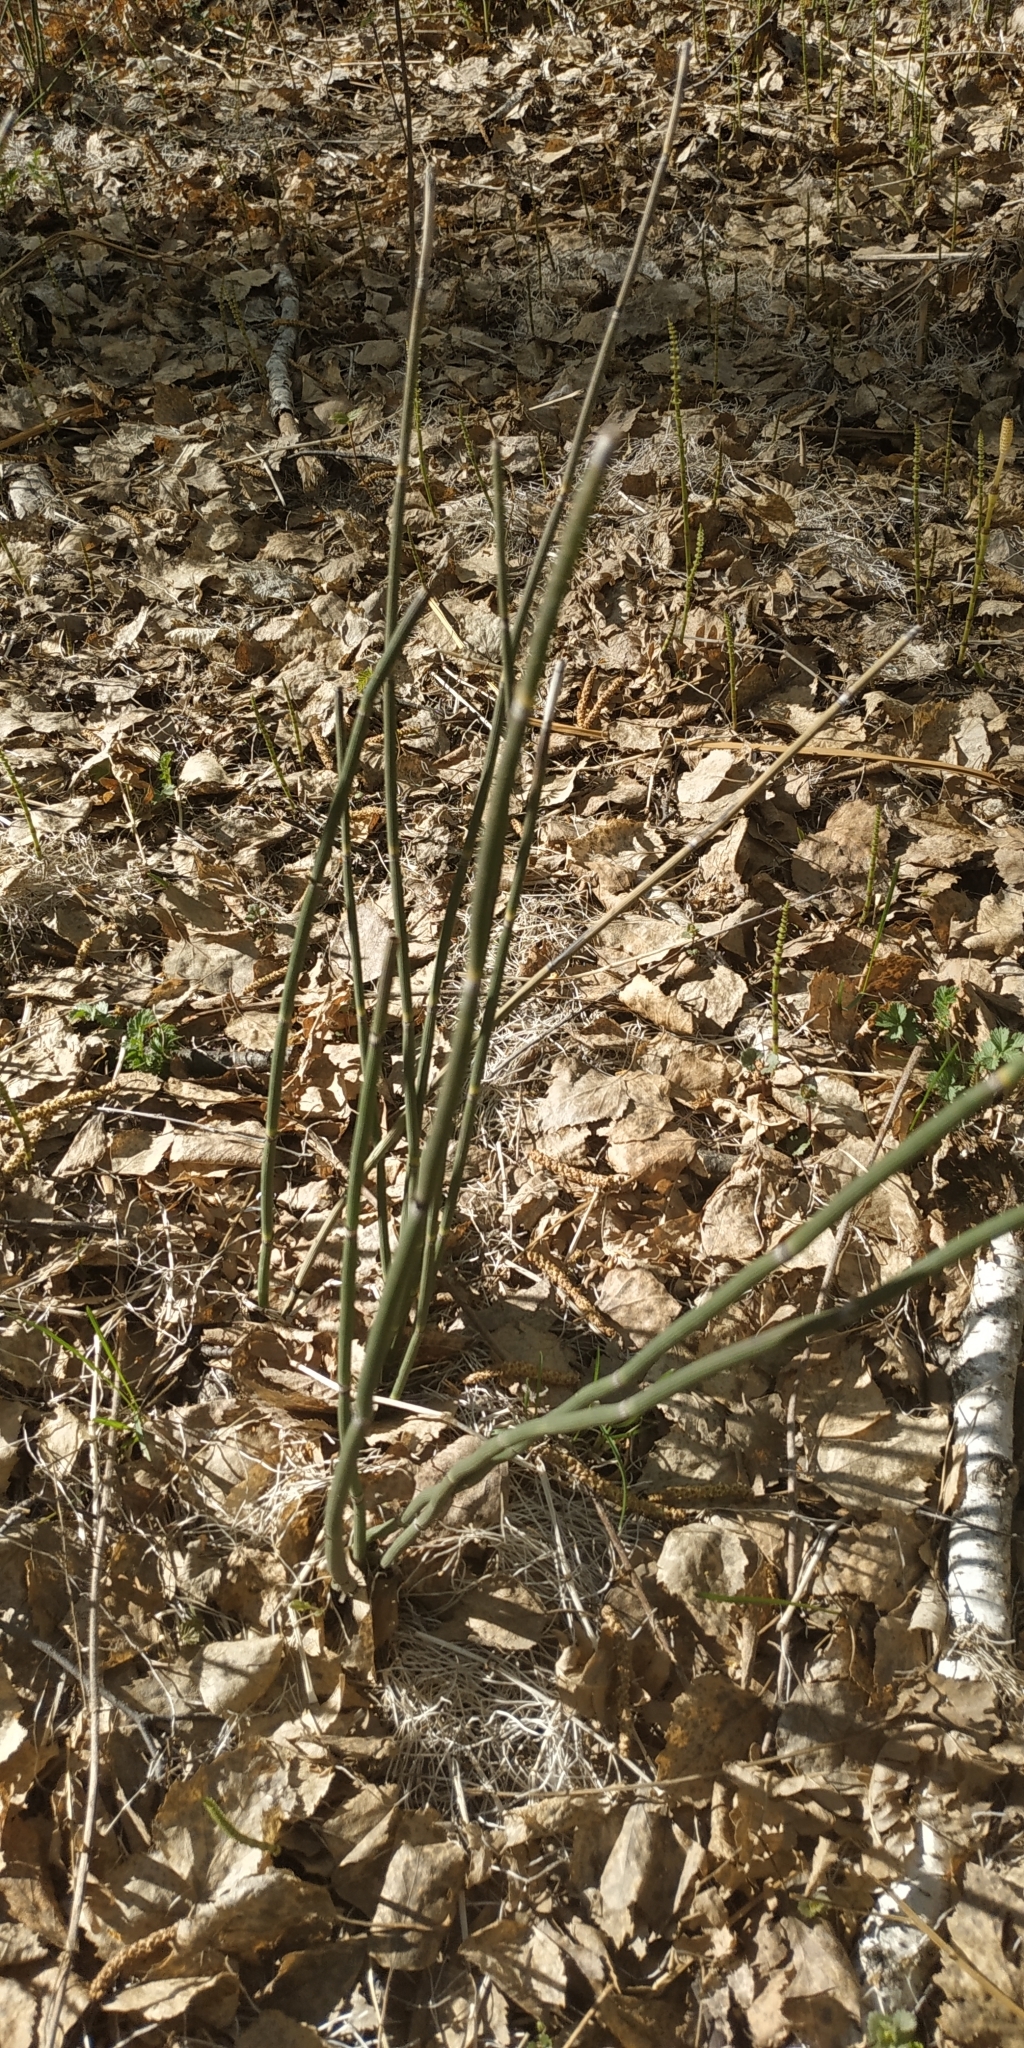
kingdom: Plantae
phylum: Tracheophyta
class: Polypodiopsida
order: Equisetales
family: Equisetaceae
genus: Equisetum
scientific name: Equisetum hyemale
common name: Rough horsetail
